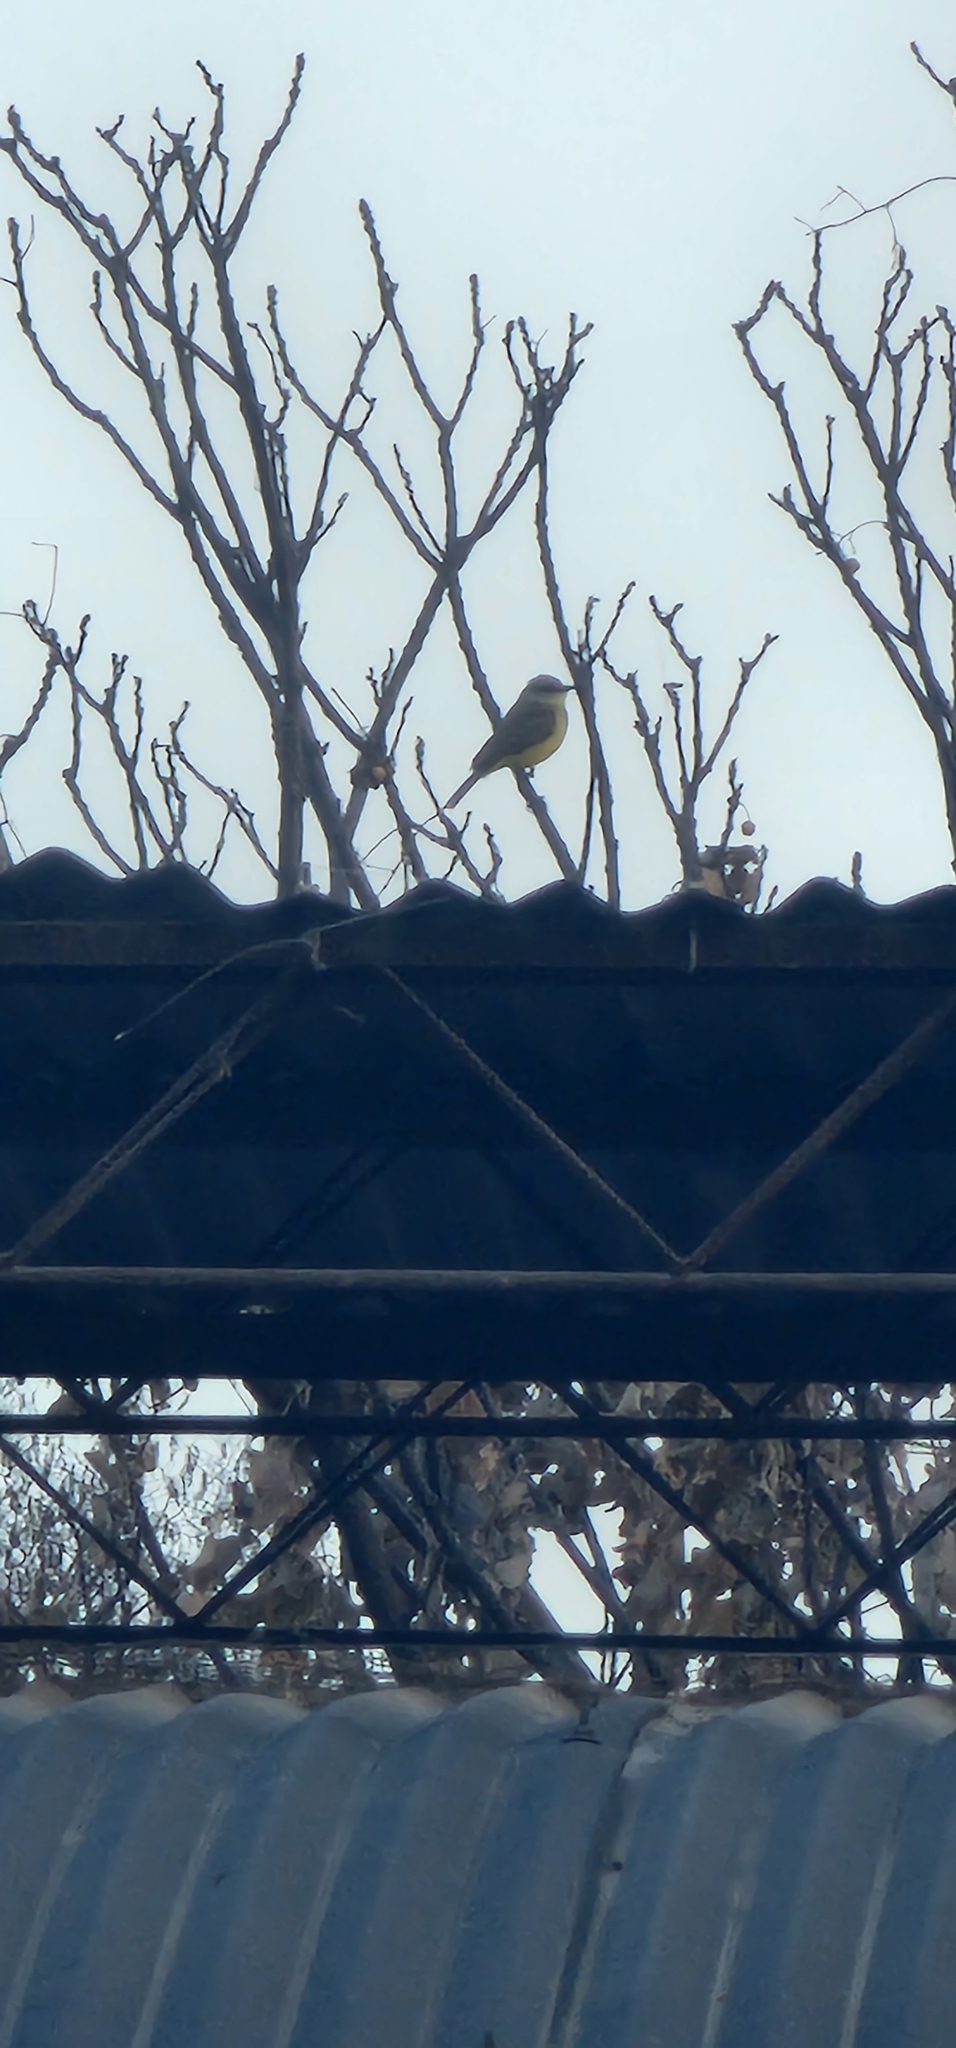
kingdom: Animalia
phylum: Chordata
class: Aves
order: Passeriformes
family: Tyrannidae
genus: Machetornis
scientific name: Machetornis rixosa
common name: Cattle tyrant
